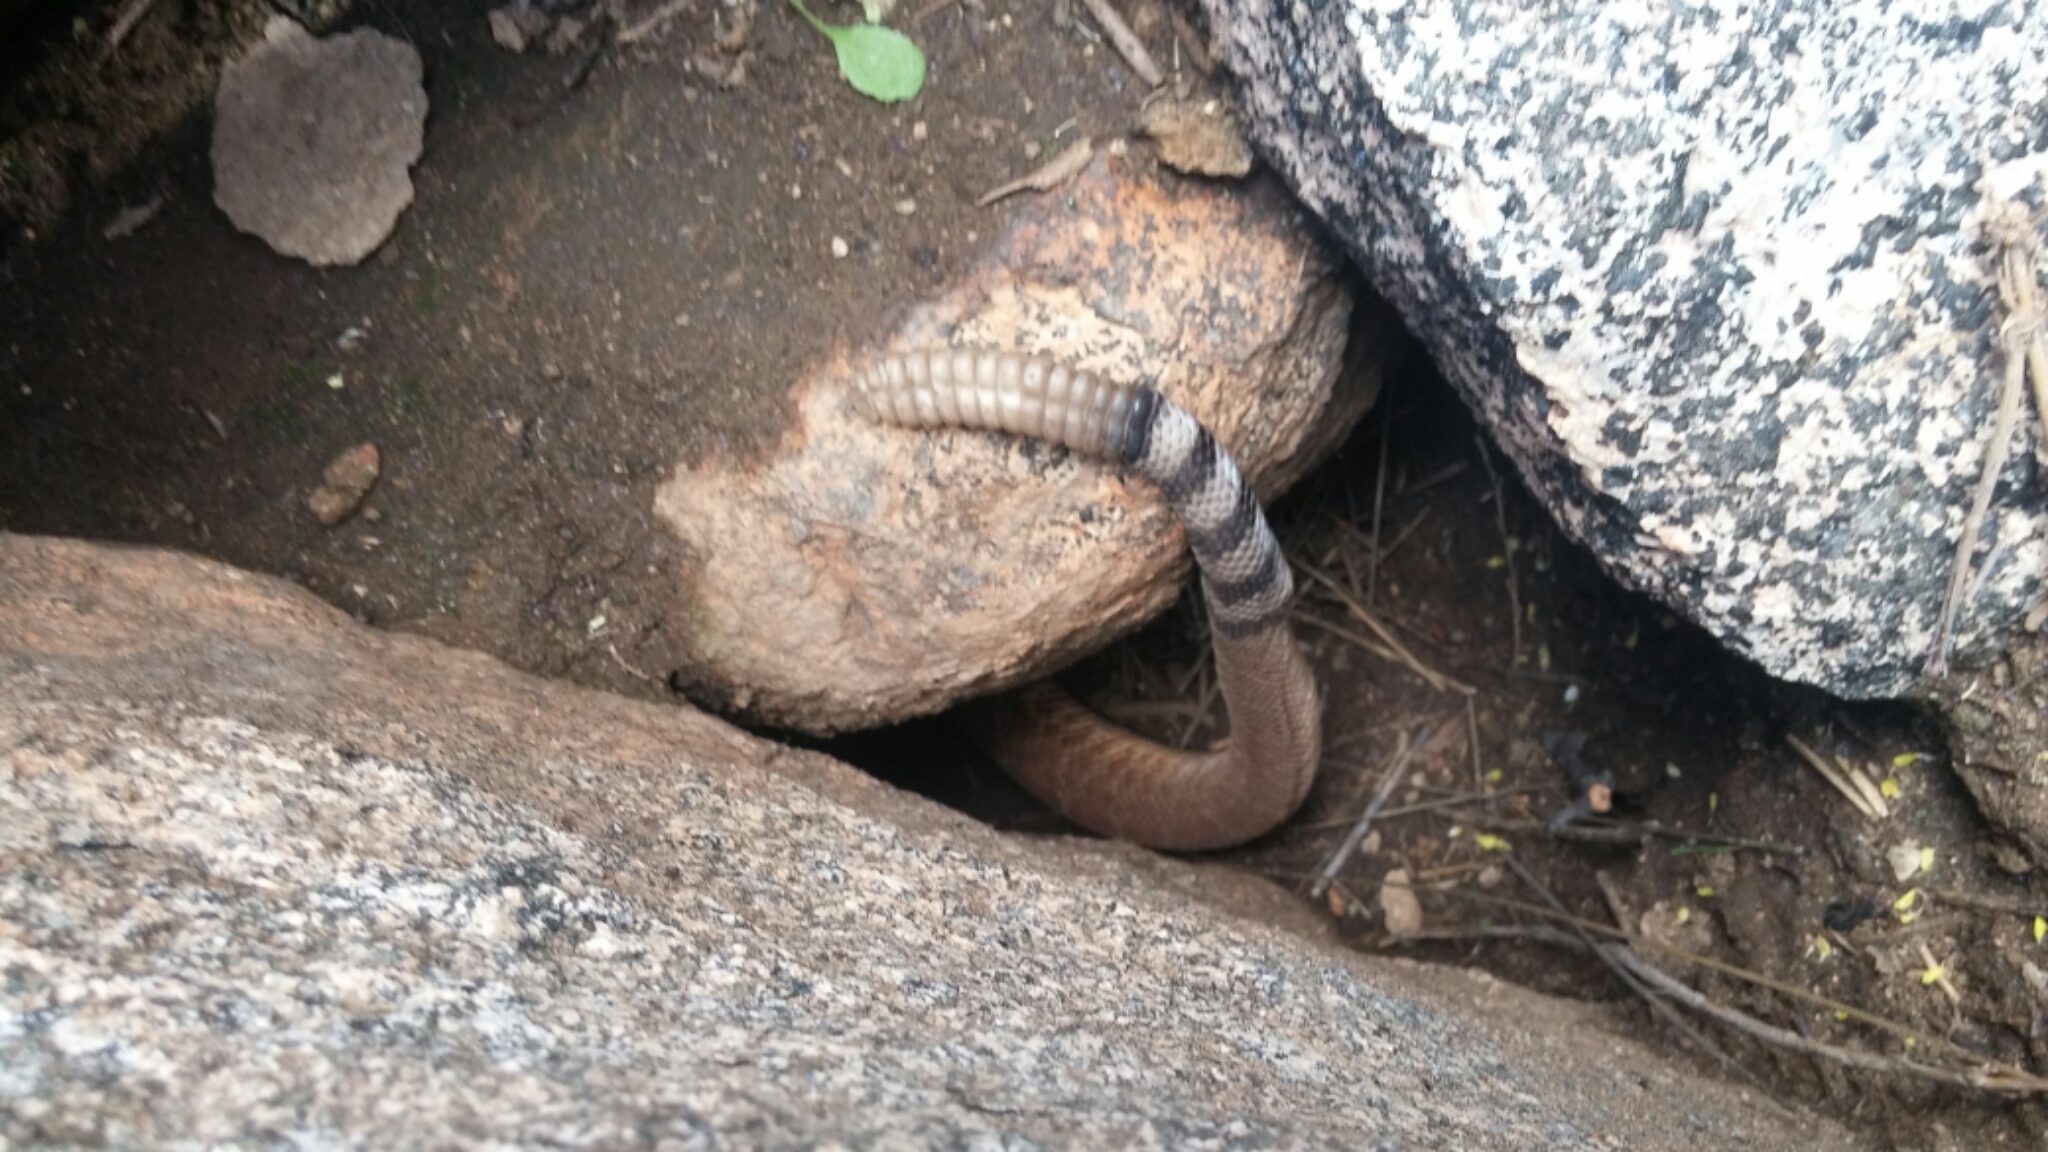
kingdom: Animalia
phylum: Chordata
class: Squamata
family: Viperidae
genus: Crotalus
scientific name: Crotalus ruber
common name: Red diamond rattlesnake
